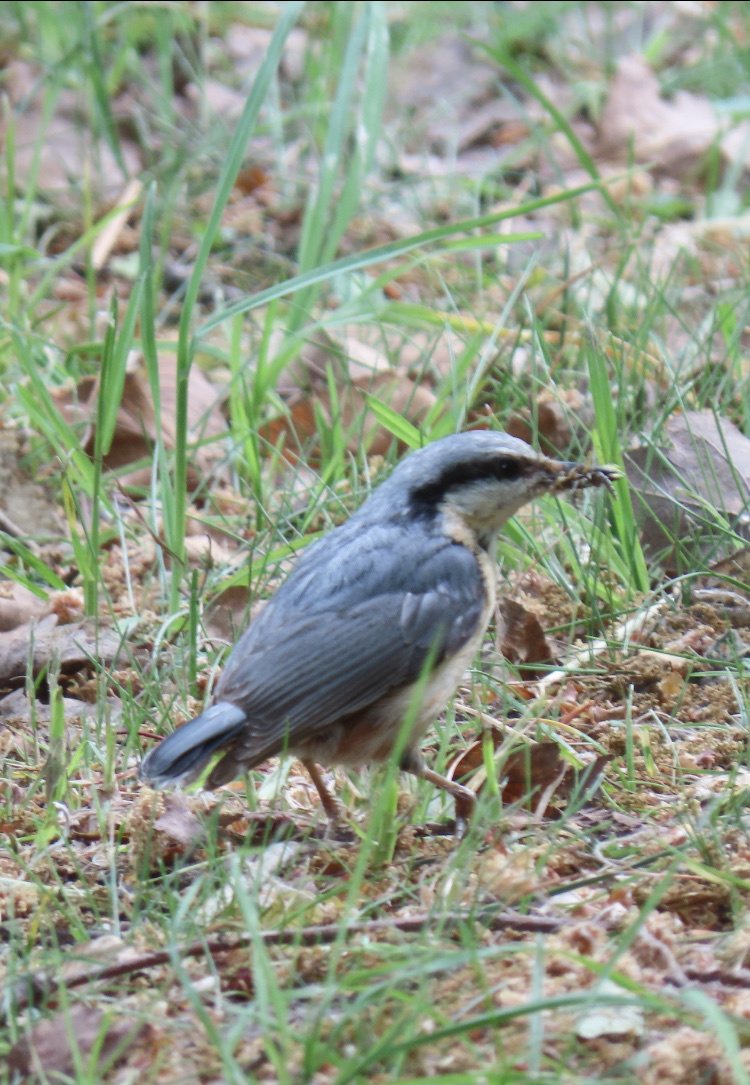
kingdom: Animalia
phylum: Chordata
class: Aves
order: Passeriformes
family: Sittidae
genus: Sitta
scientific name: Sitta europaea
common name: Eurasian nuthatch
